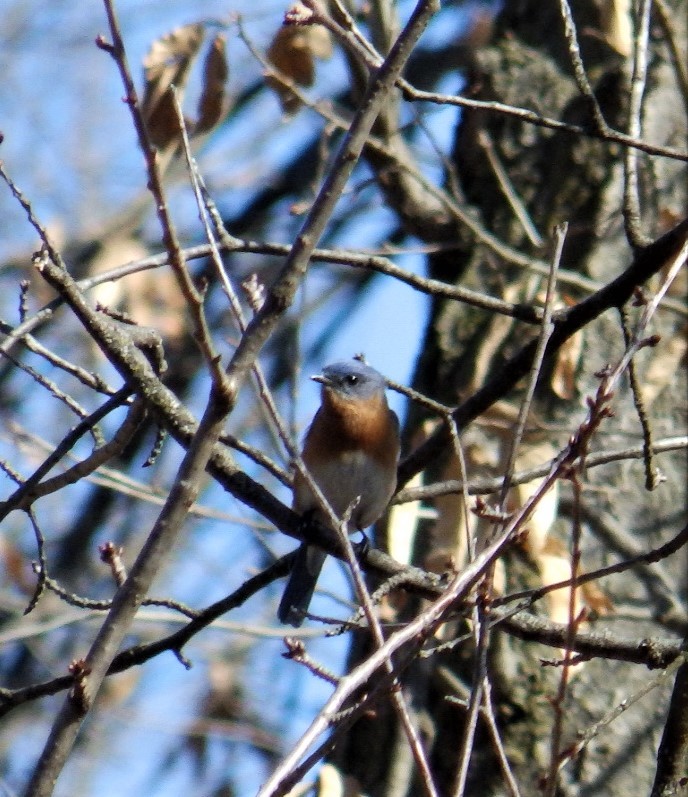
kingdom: Animalia
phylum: Chordata
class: Aves
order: Passeriformes
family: Turdidae
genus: Sialia
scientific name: Sialia sialis
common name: Eastern bluebird
